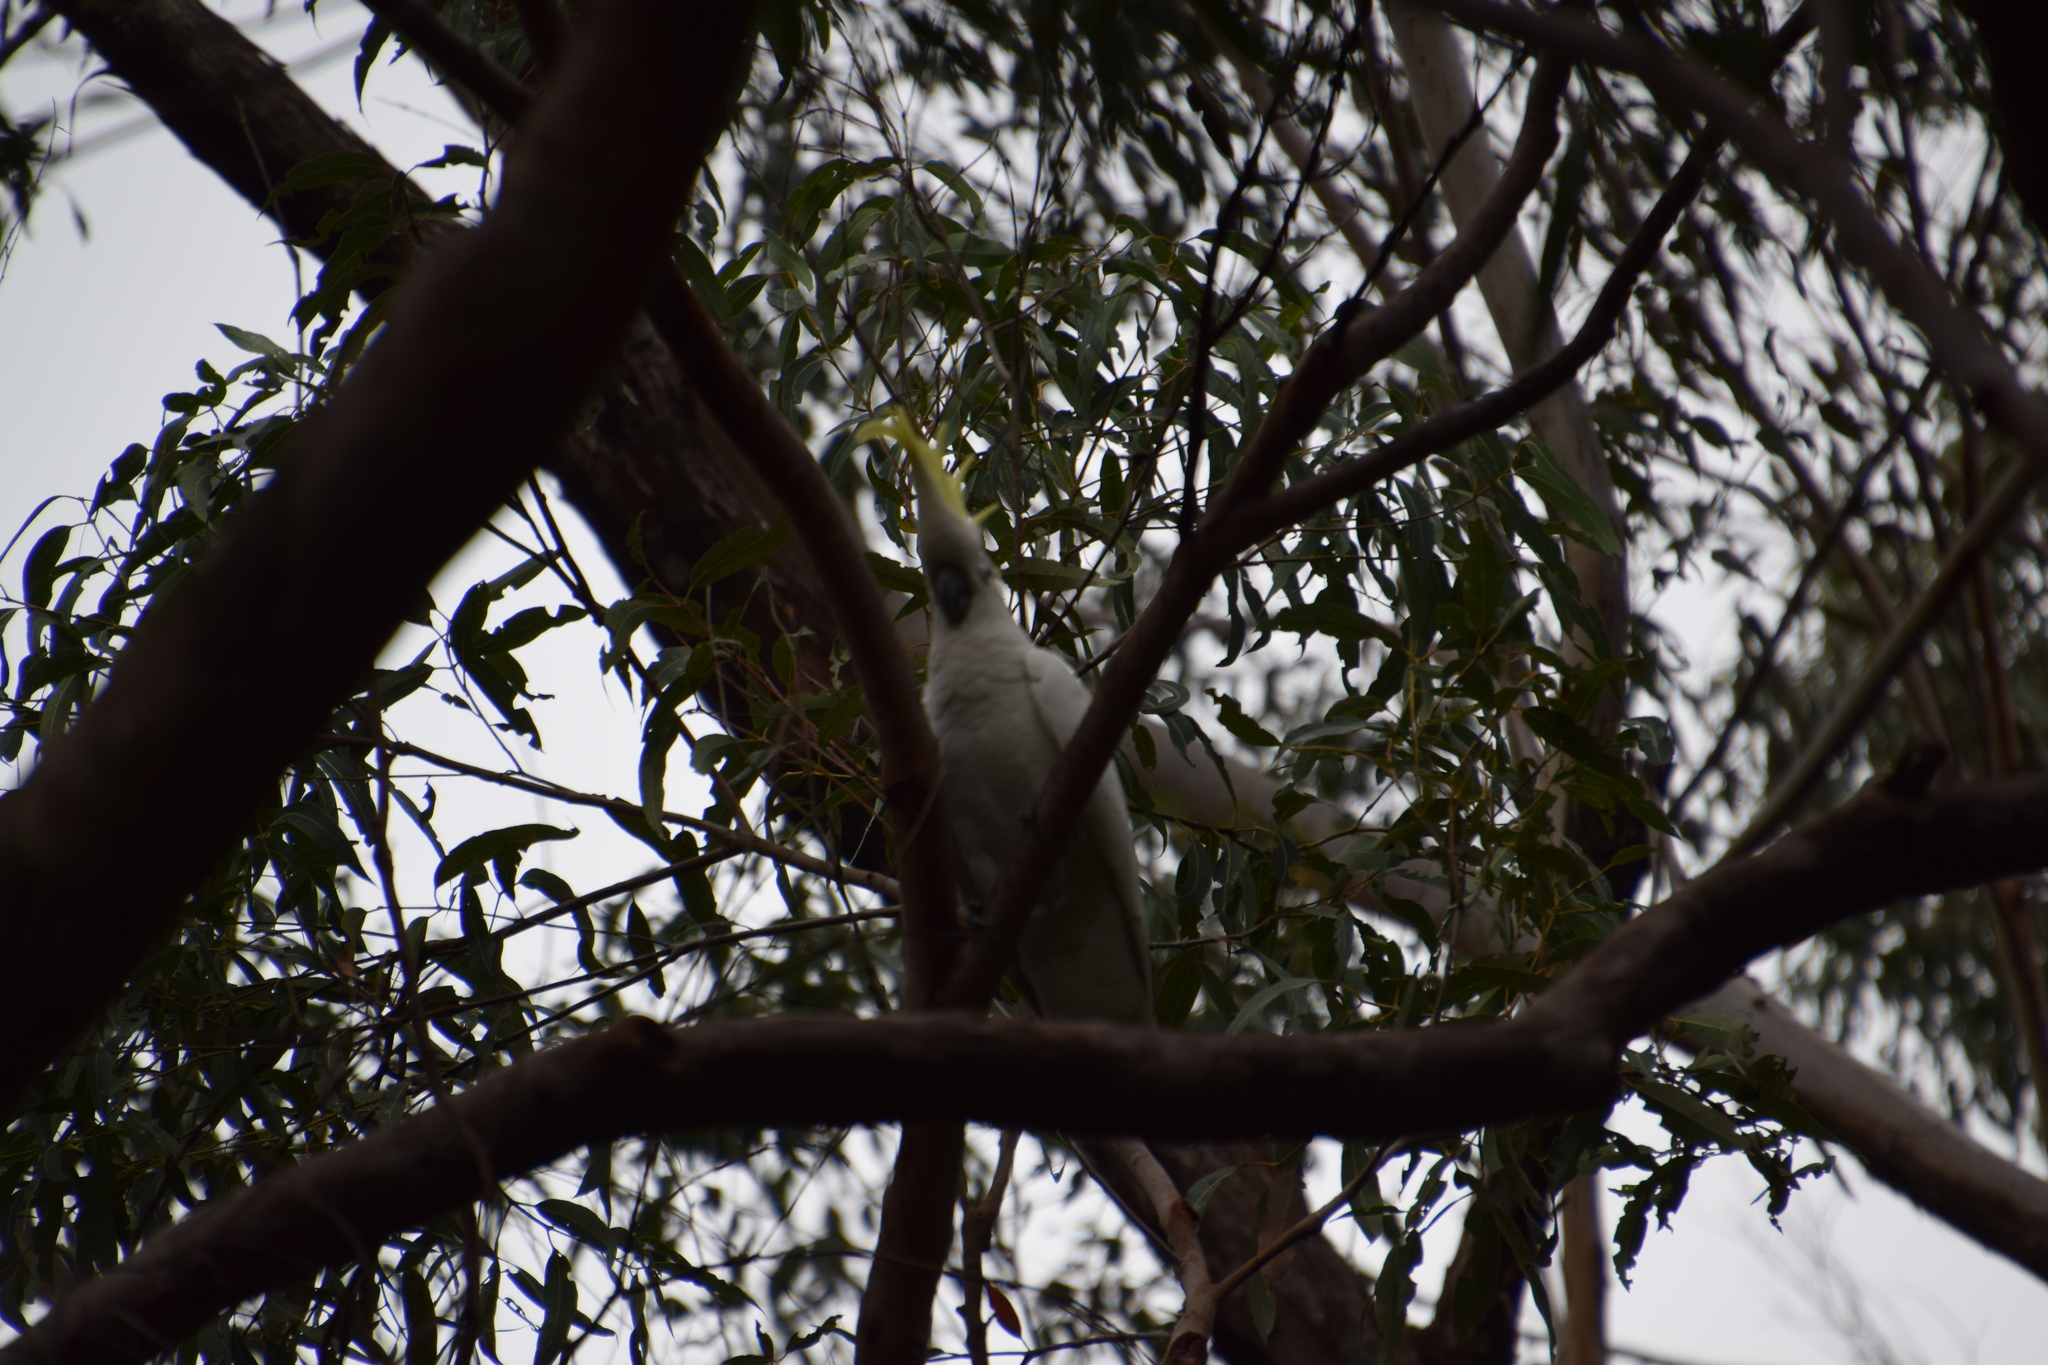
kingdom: Animalia
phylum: Chordata
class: Aves
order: Psittaciformes
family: Psittacidae
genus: Cacatua
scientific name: Cacatua galerita
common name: Sulphur-crested cockatoo
